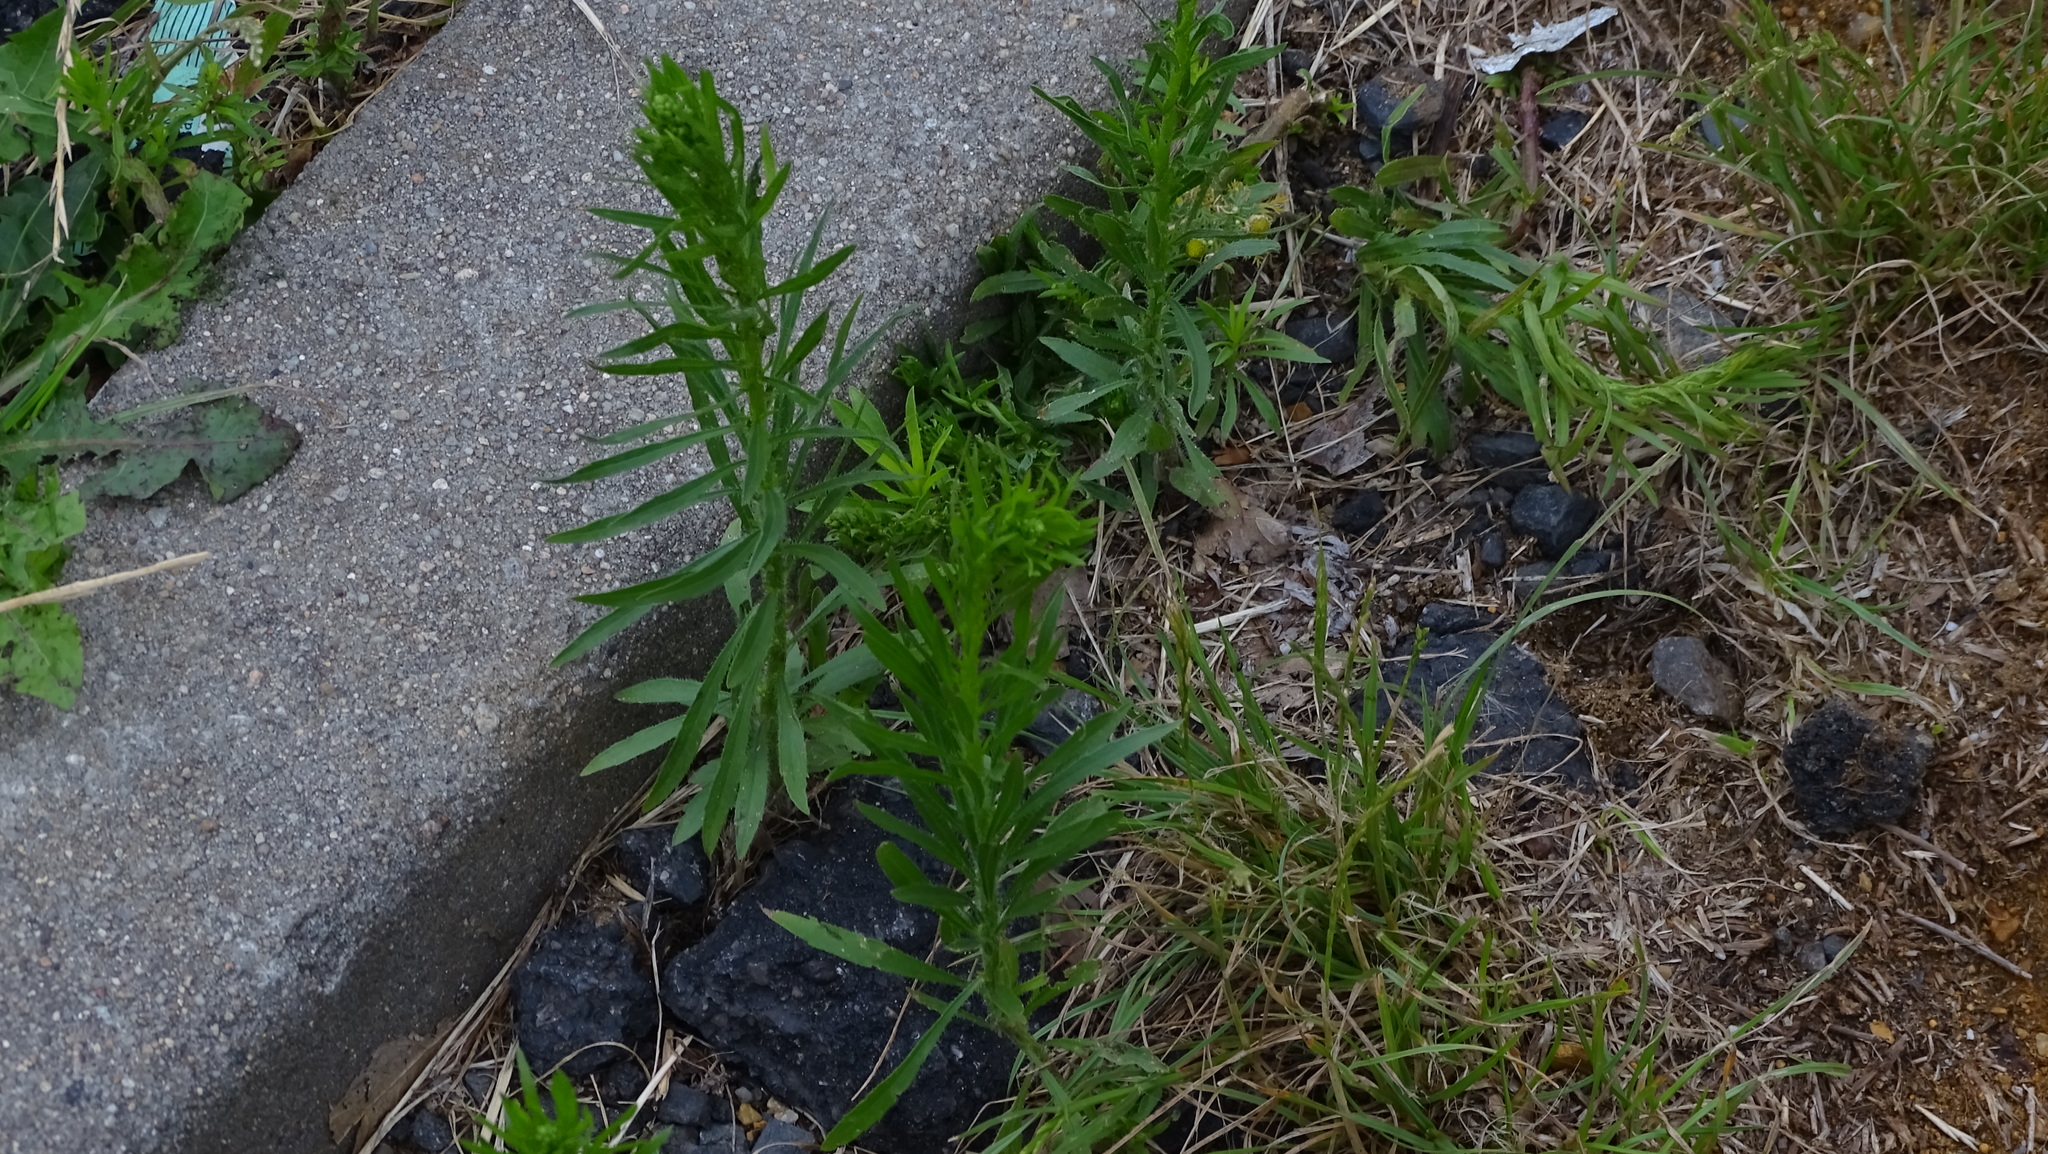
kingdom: Plantae
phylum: Tracheophyta
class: Magnoliopsida
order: Asterales
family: Asteraceae
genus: Erigeron
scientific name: Erigeron canadensis
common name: Canadian fleabane
